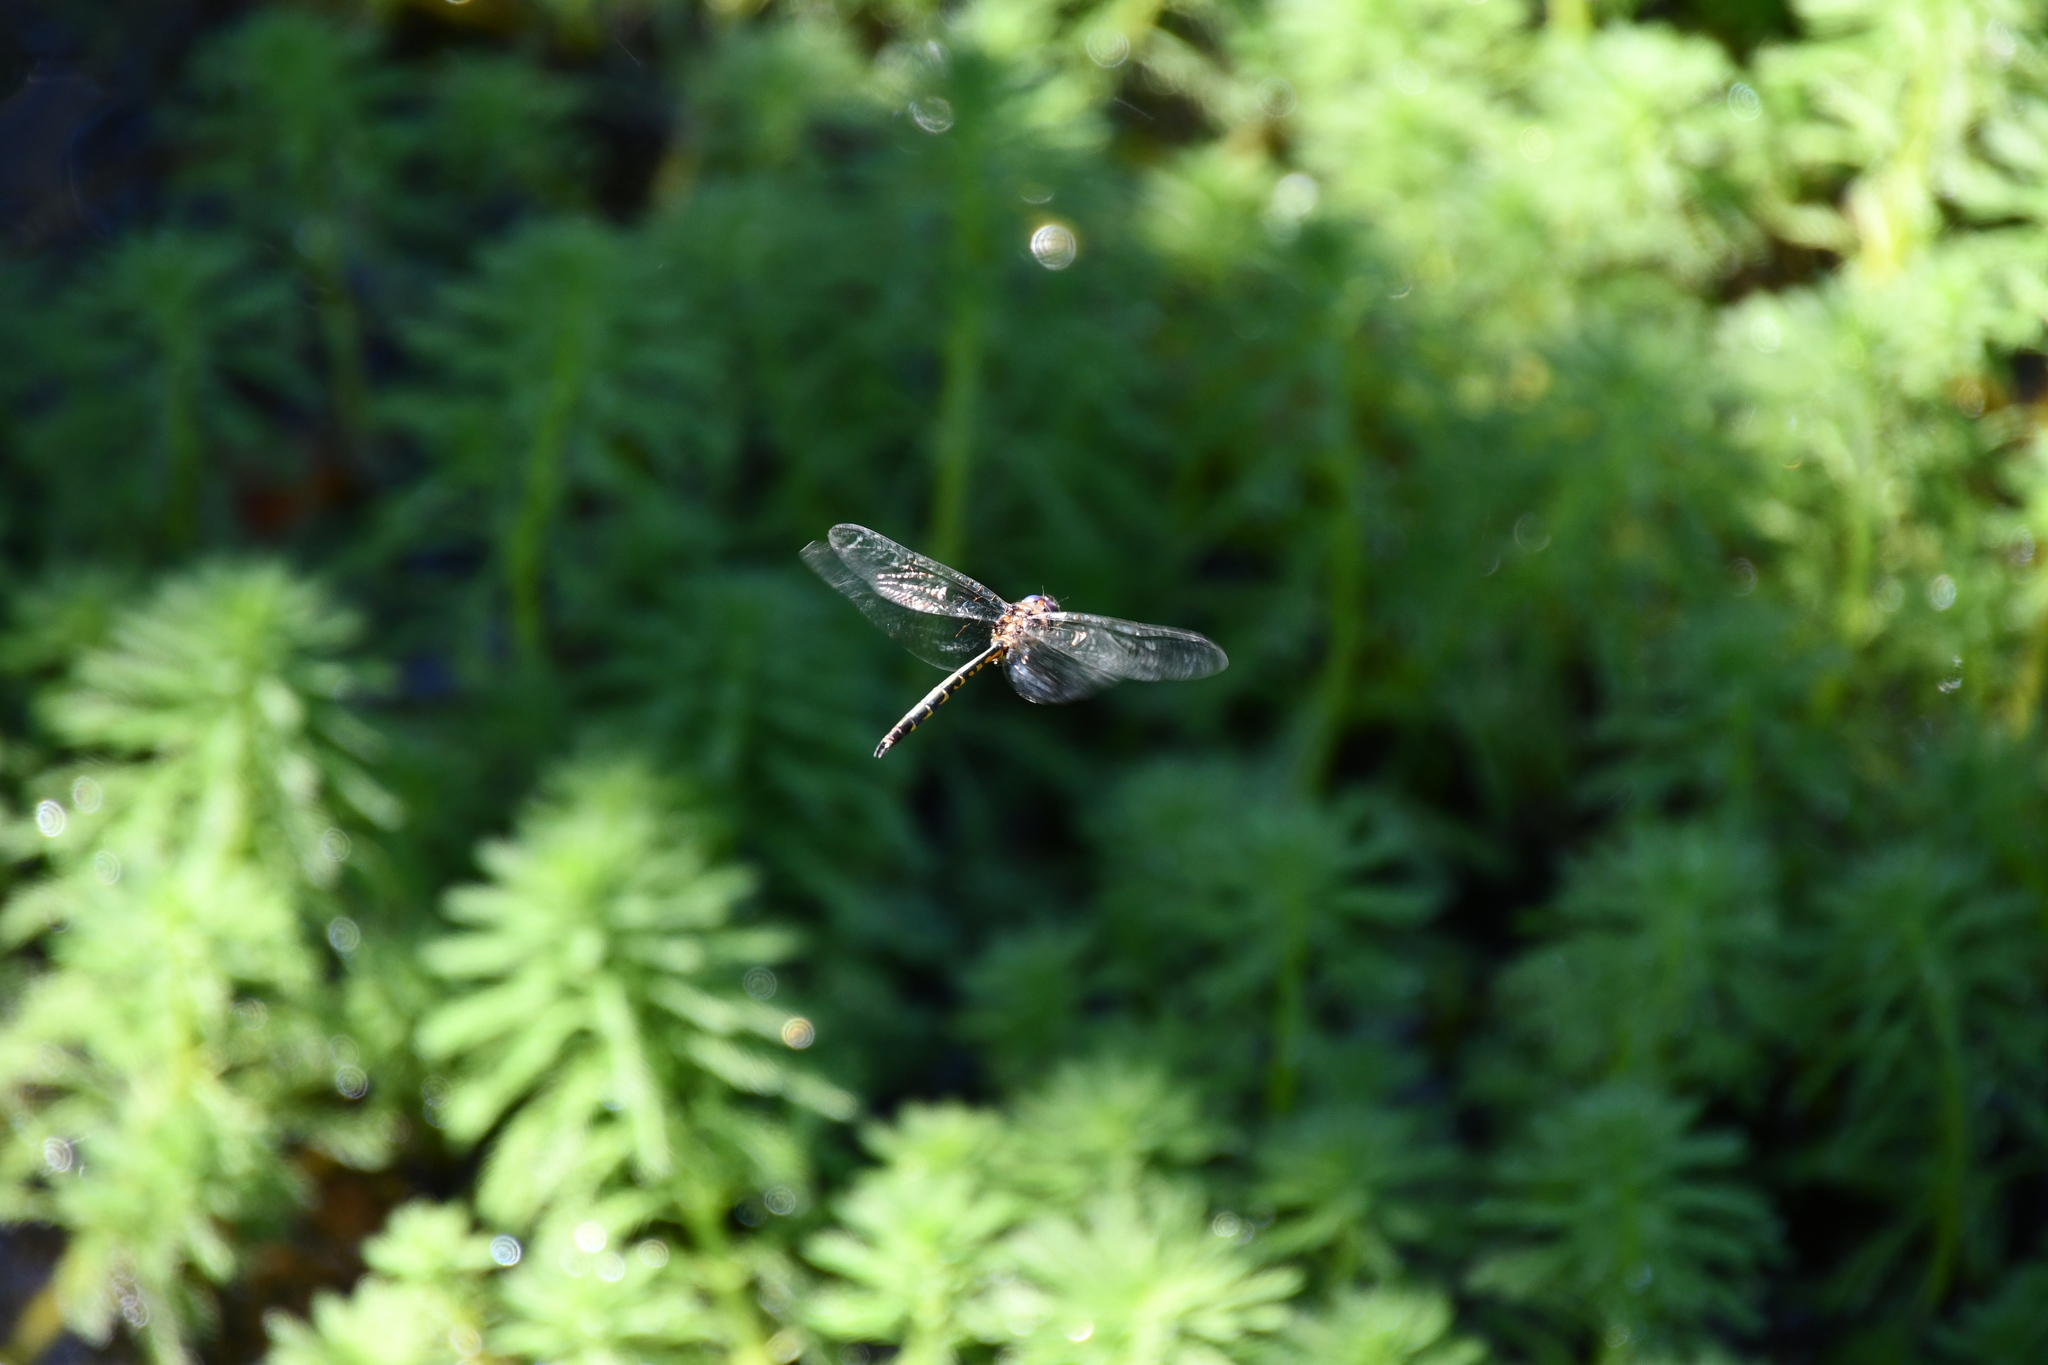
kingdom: Animalia
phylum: Arthropoda
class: Insecta
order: Odonata
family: Corduliidae
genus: Hemicordulia
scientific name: Hemicordulia australiae
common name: Sentry dragonfly
